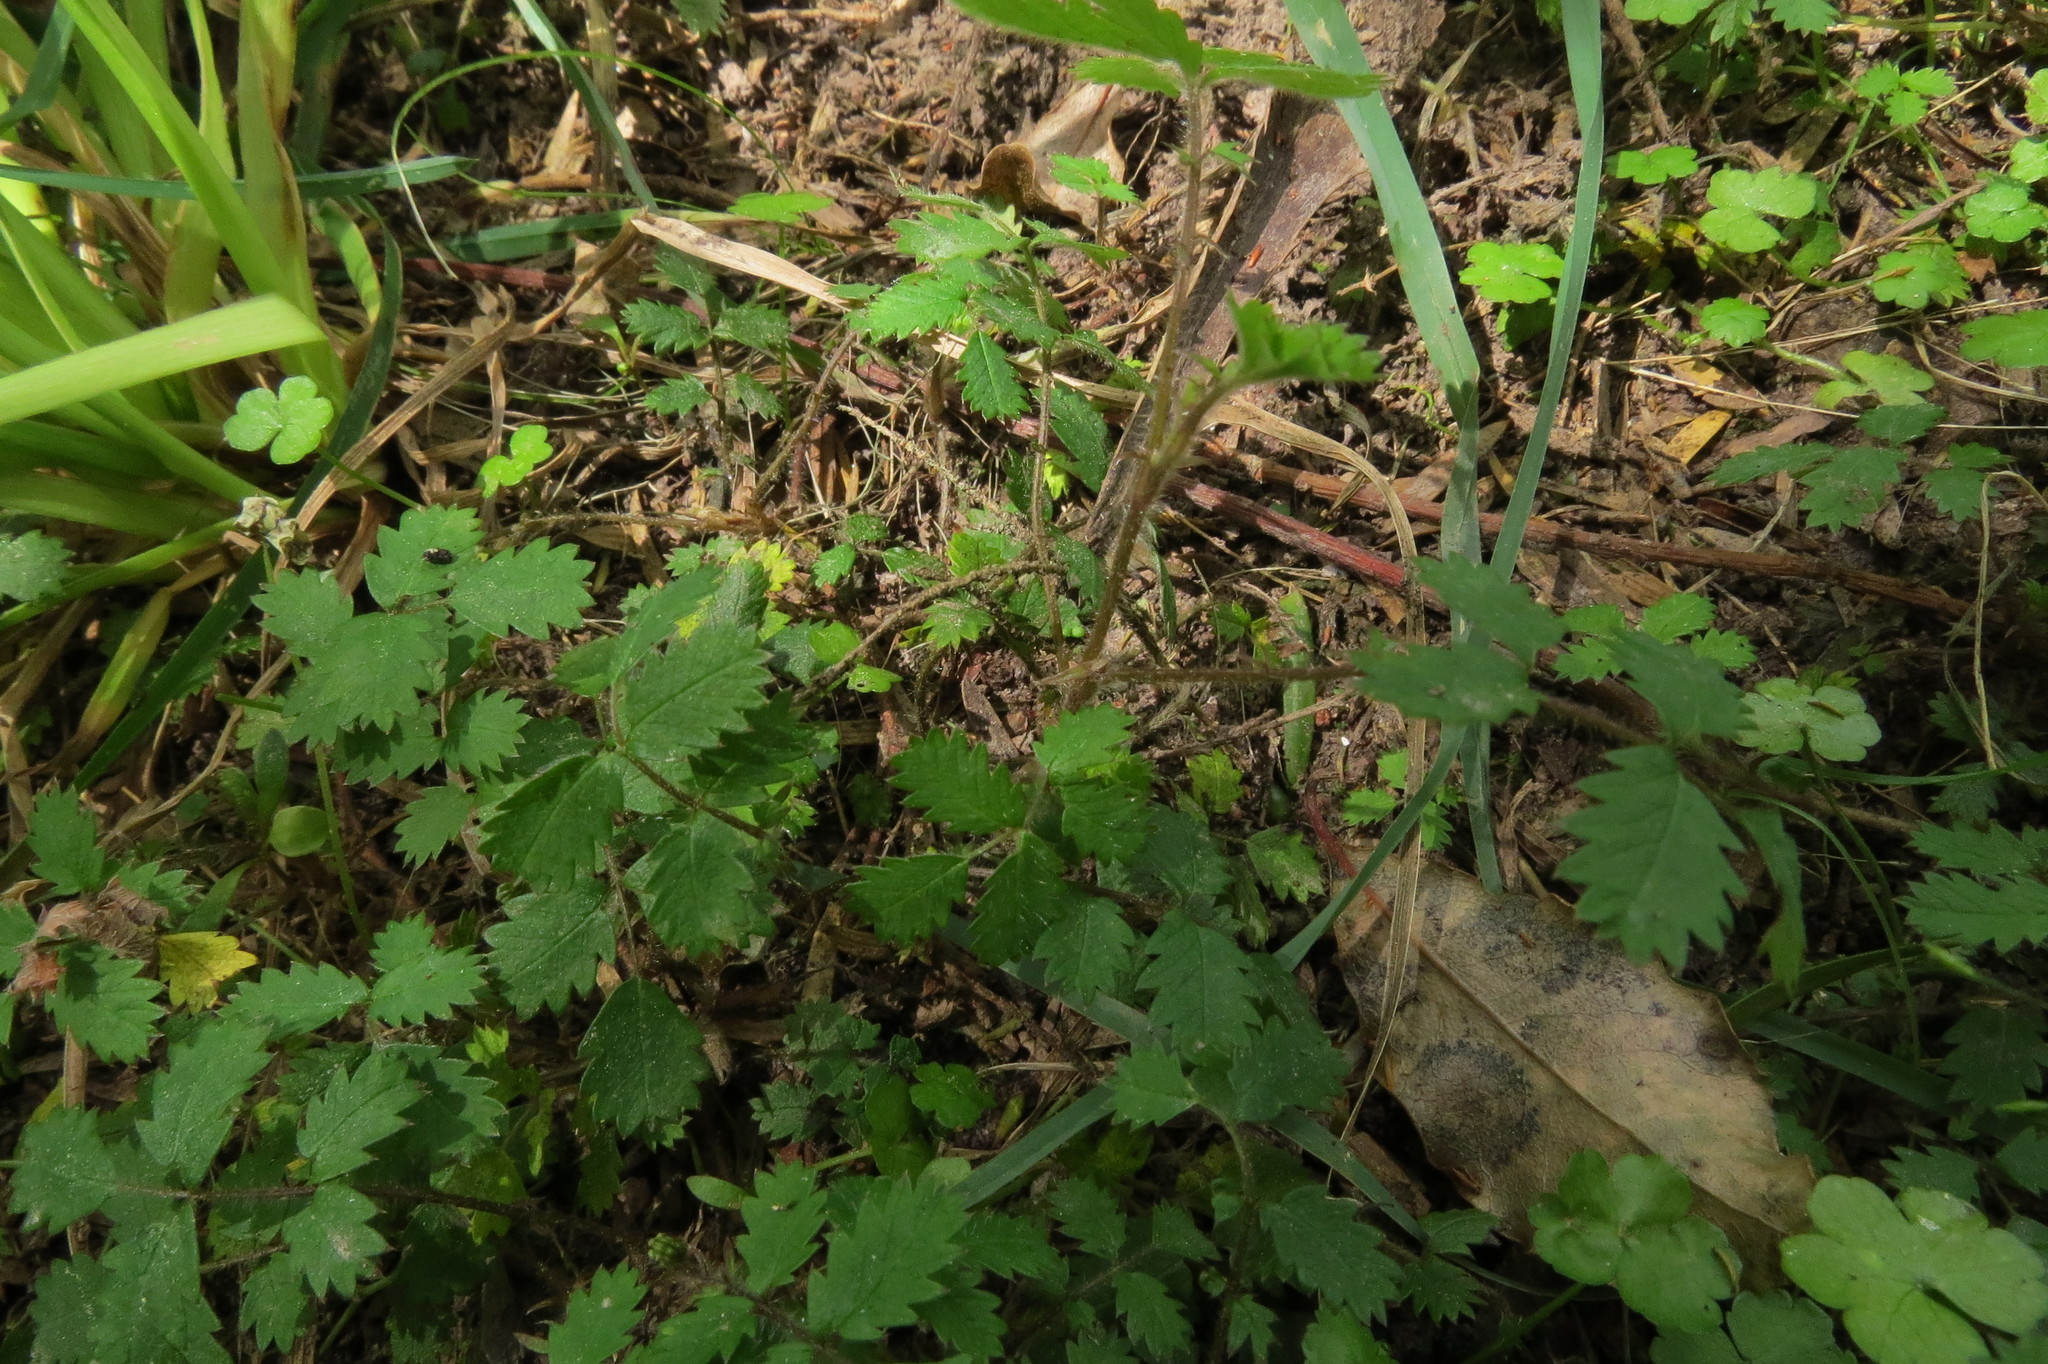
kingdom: Plantae
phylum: Tracheophyta
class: Magnoliopsida
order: Rosales
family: Rosaceae
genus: Acaena
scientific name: Acaena juvenca
